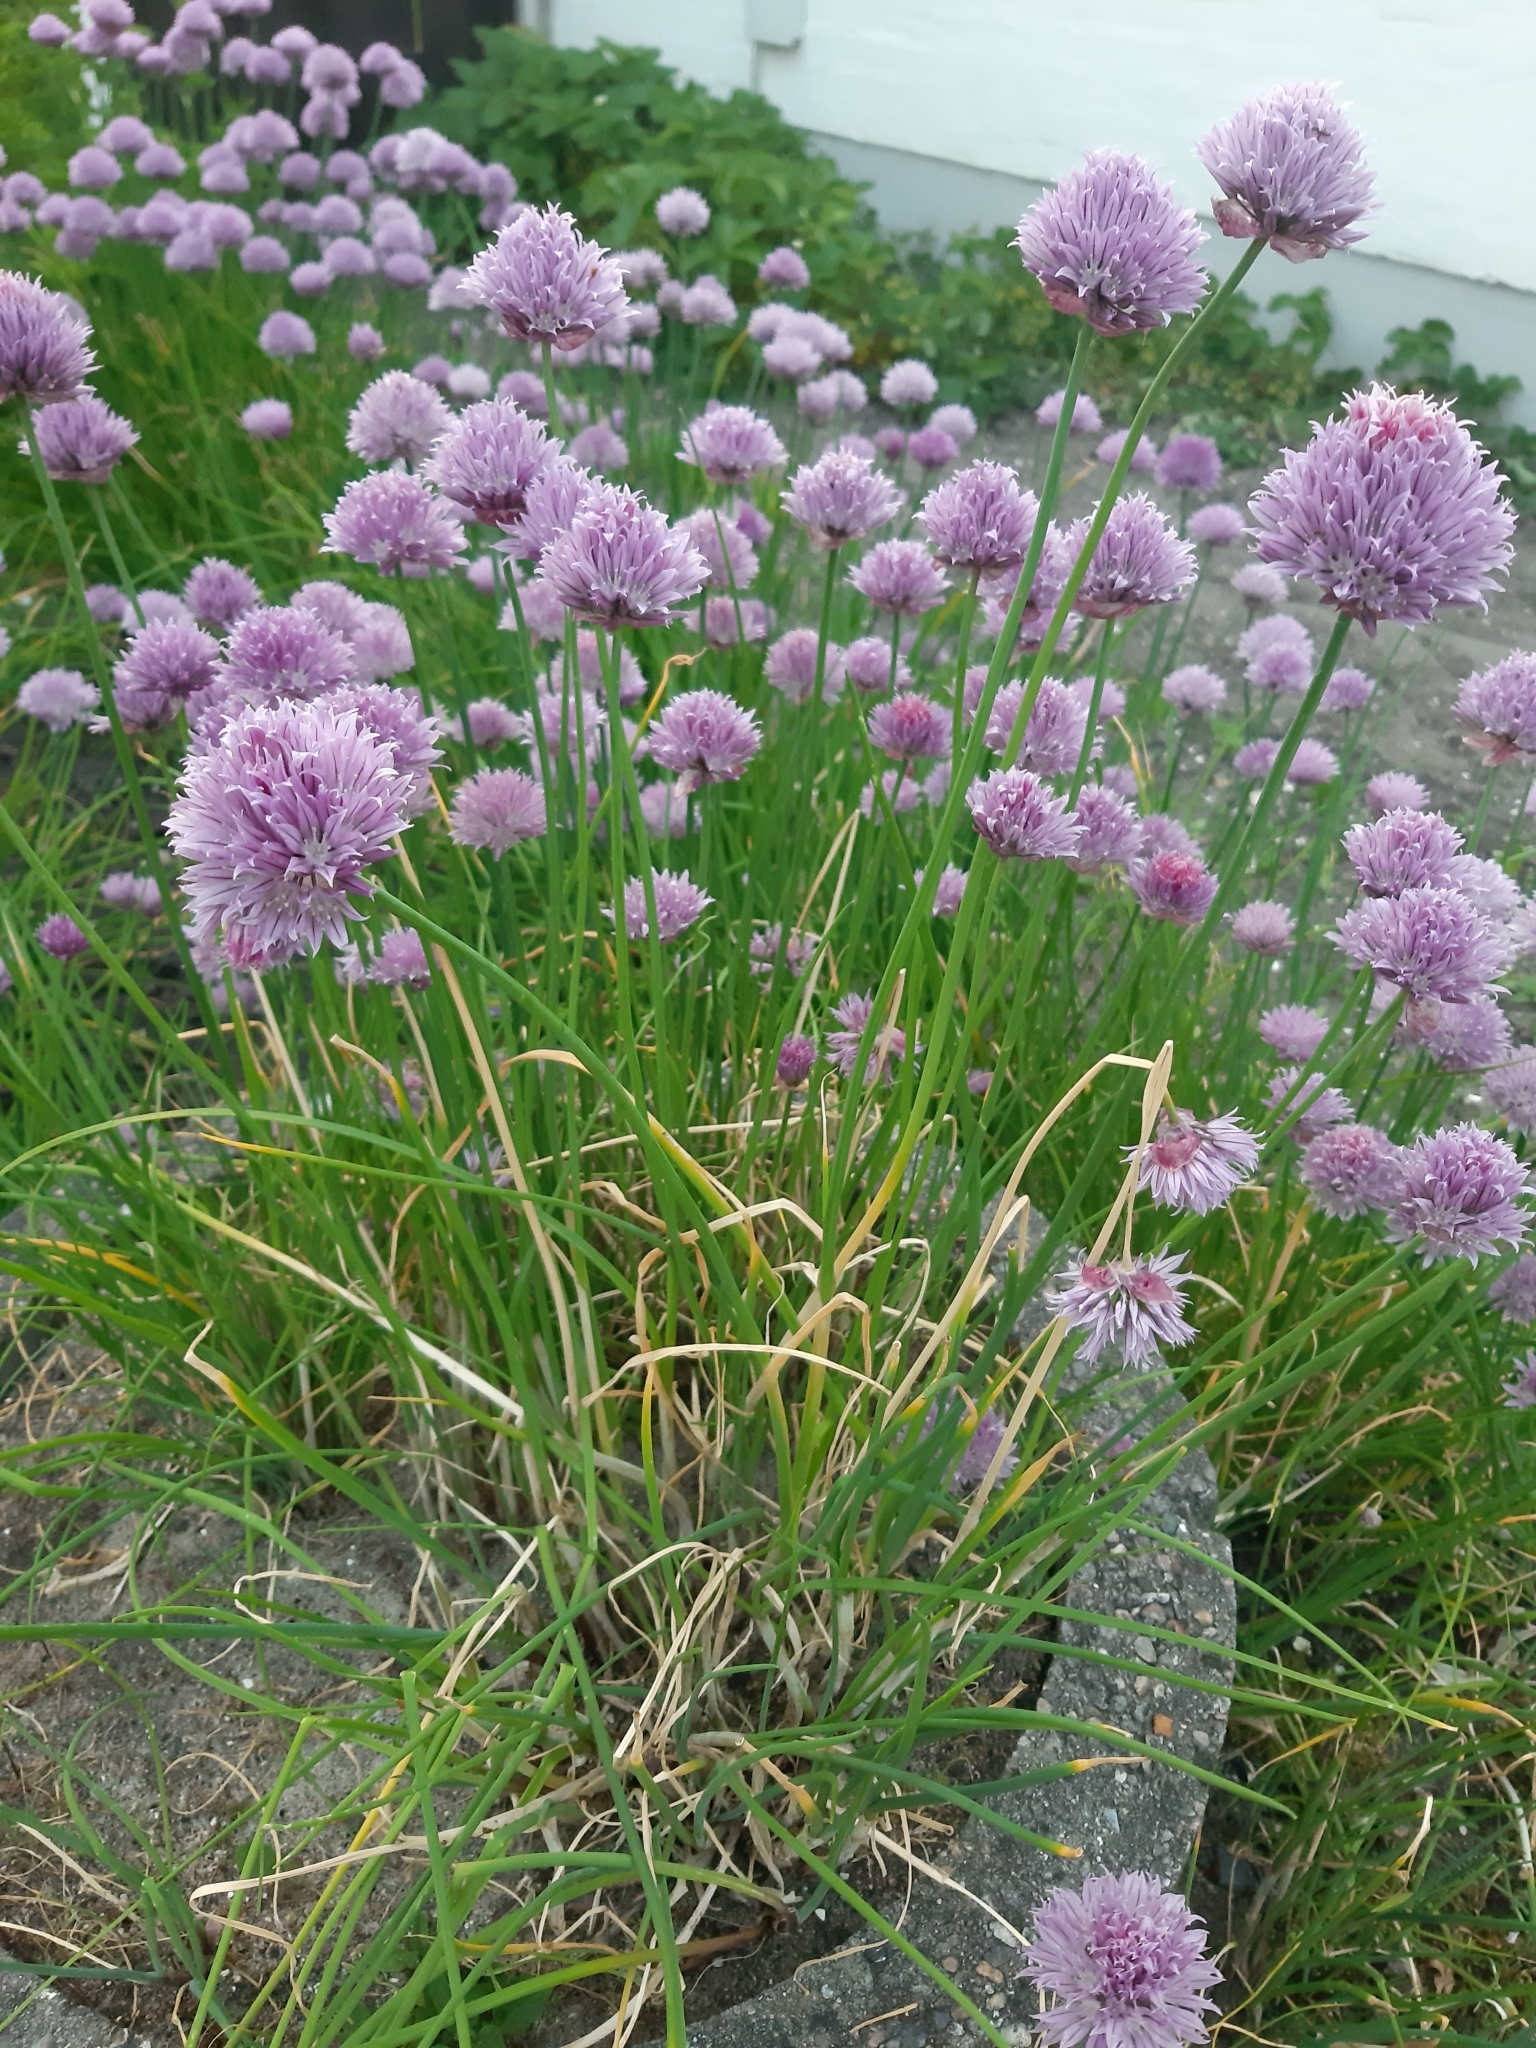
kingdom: Plantae
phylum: Tracheophyta
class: Liliopsida
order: Asparagales
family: Amaryllidaceae
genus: Allium
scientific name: Allium schoenoprasum
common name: Chives
